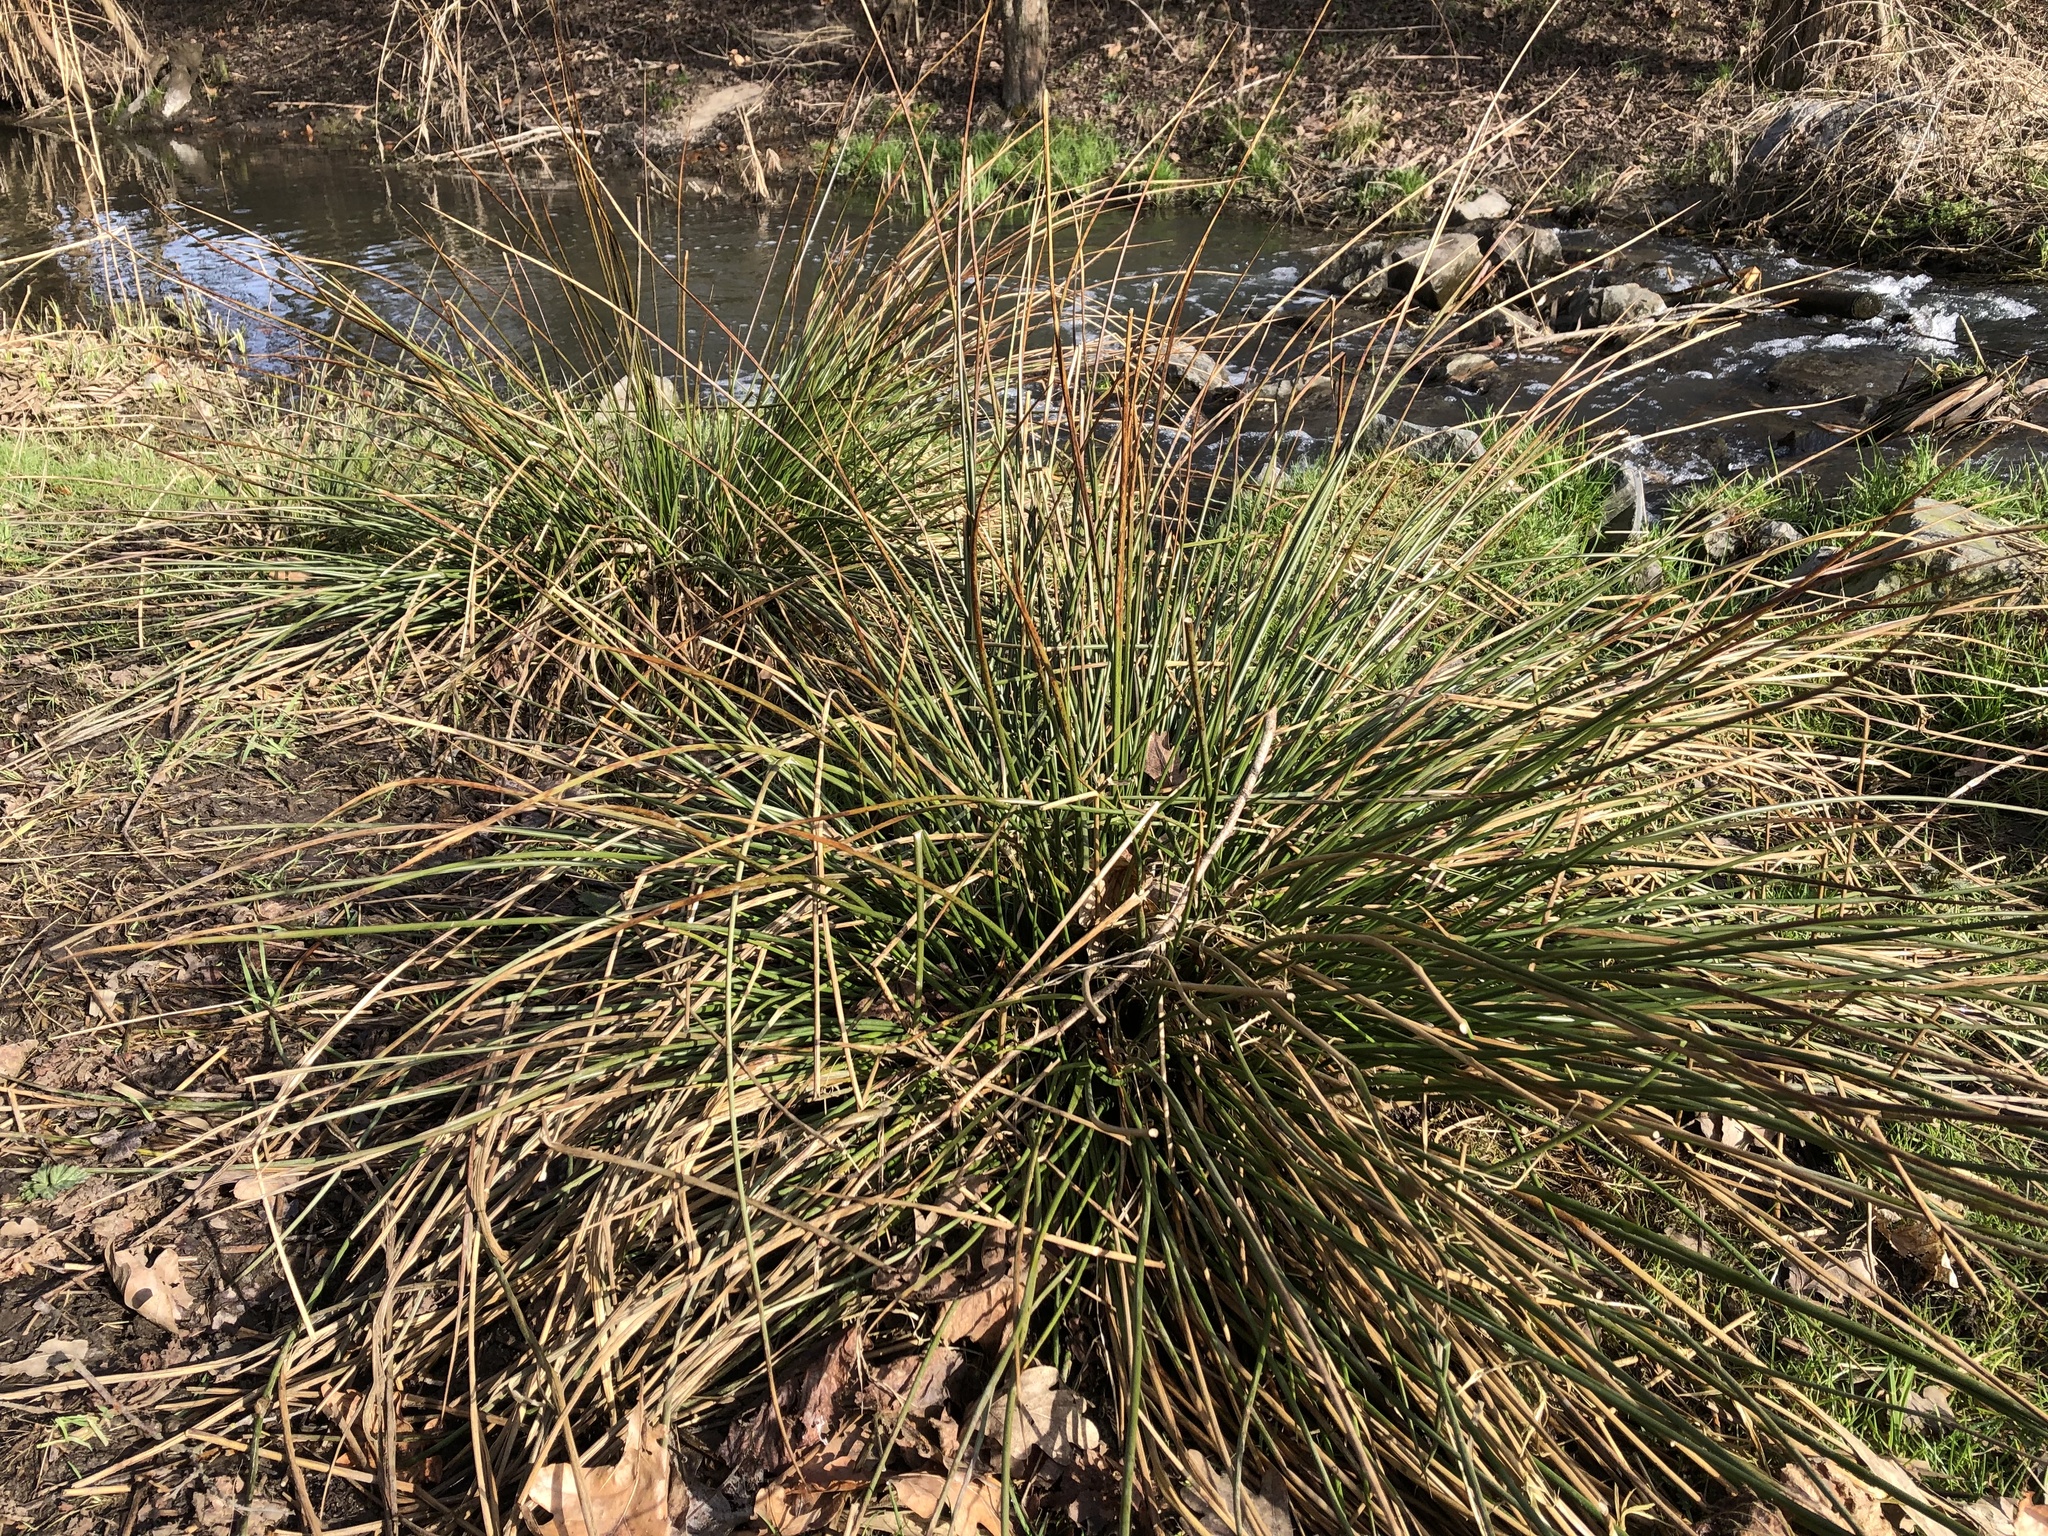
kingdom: Plantae
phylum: Tracheophyta
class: Liliopsida
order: Poales
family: Juncaceae
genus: Juncus
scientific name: Juncus effusus
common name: Soft rush
